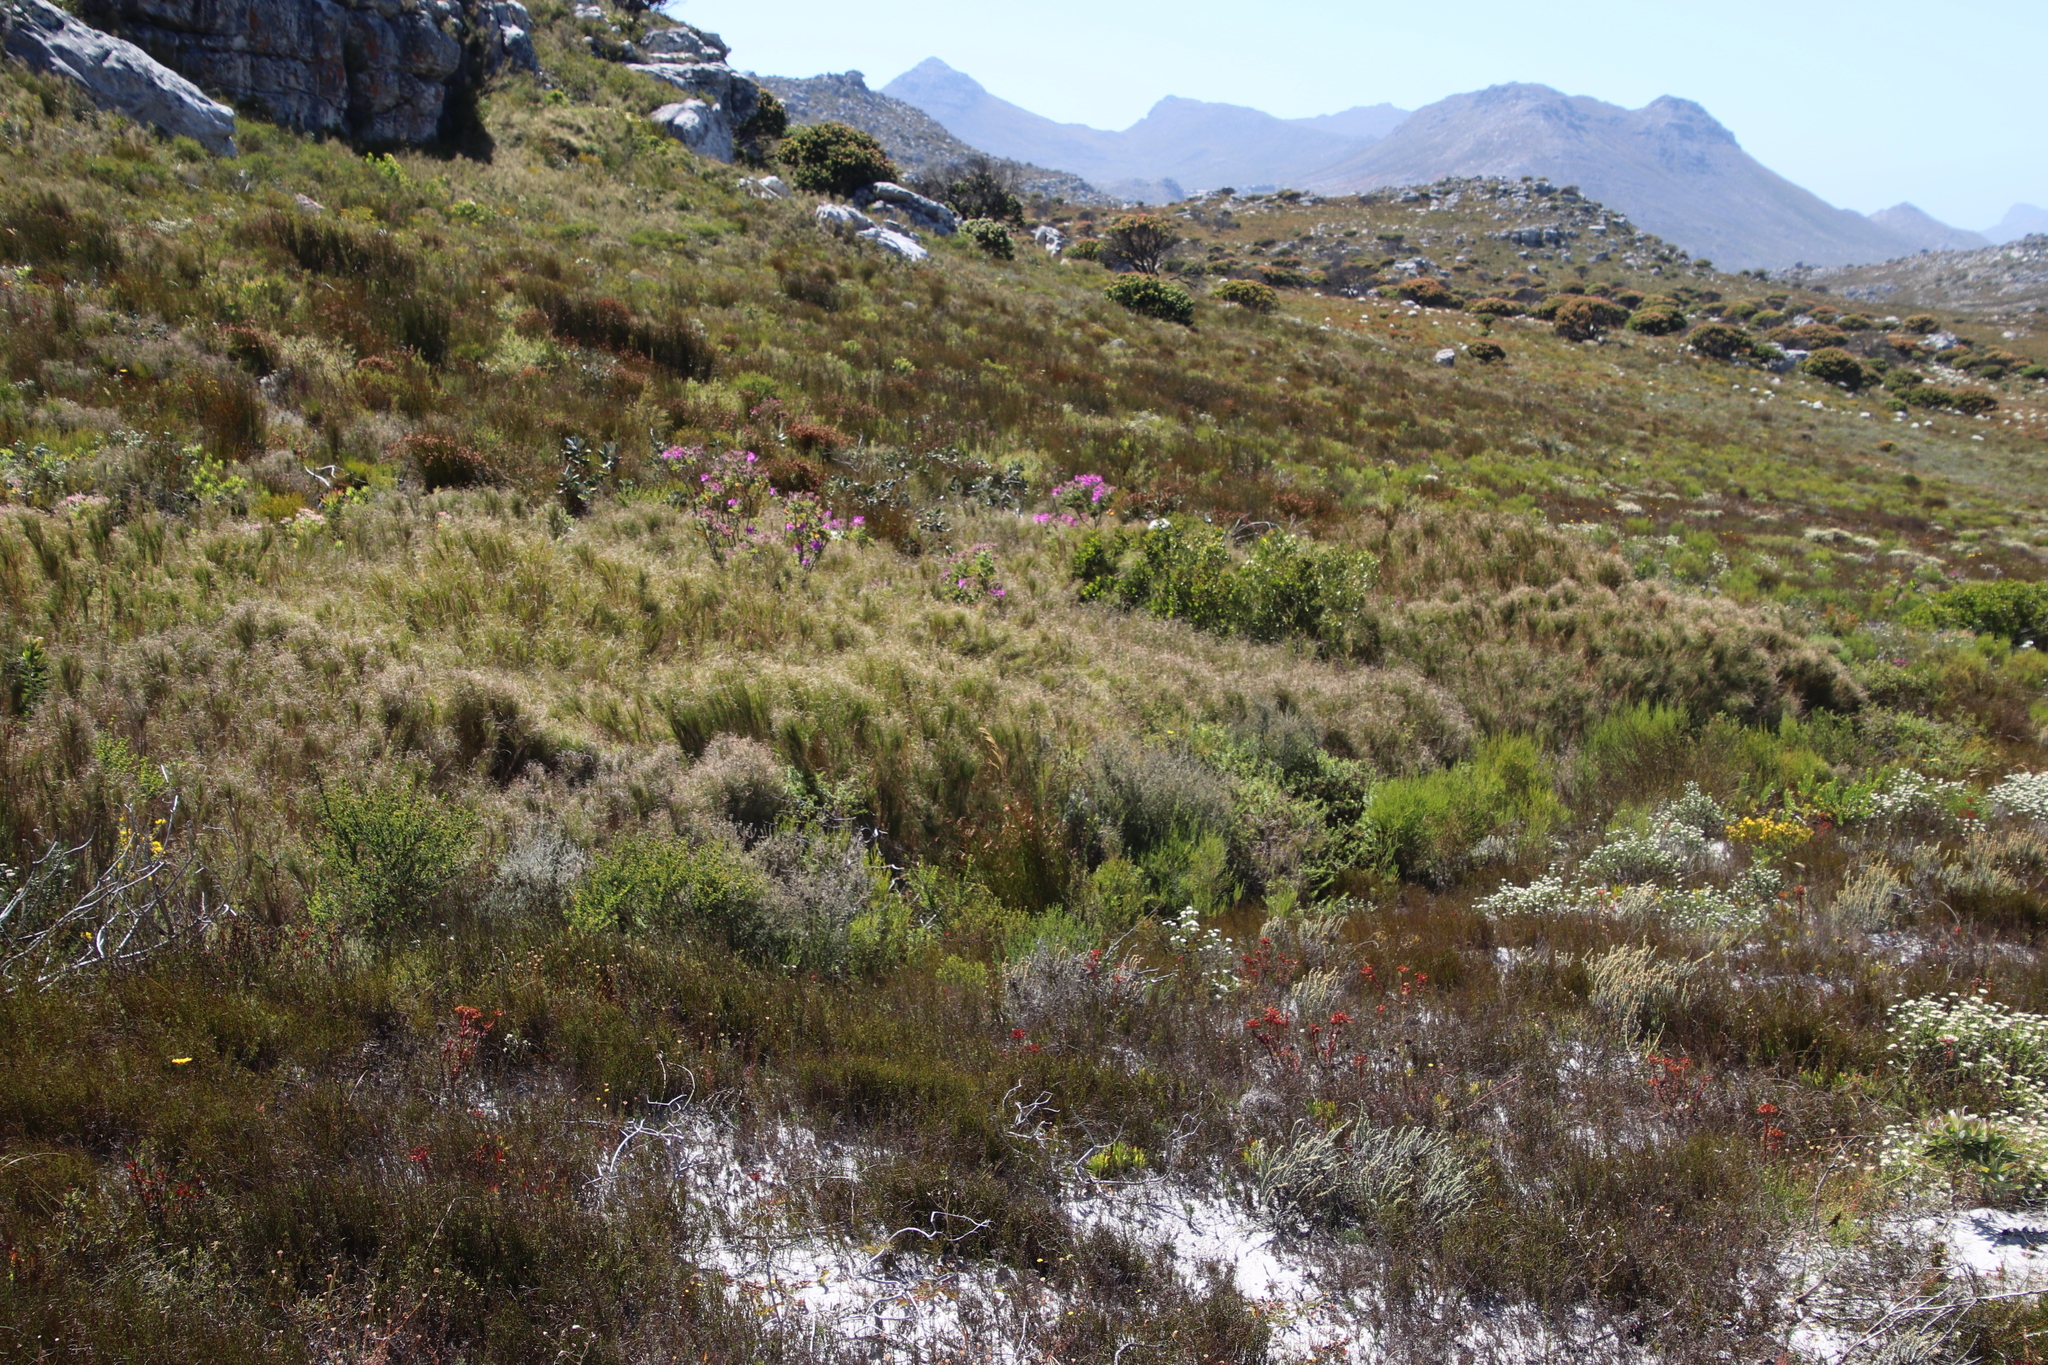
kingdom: Plantae
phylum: Tracheophyta
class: Liliopsida
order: Poales
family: Poaceae
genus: Pseudopentameris
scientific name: Pseudopentameris macrantha
